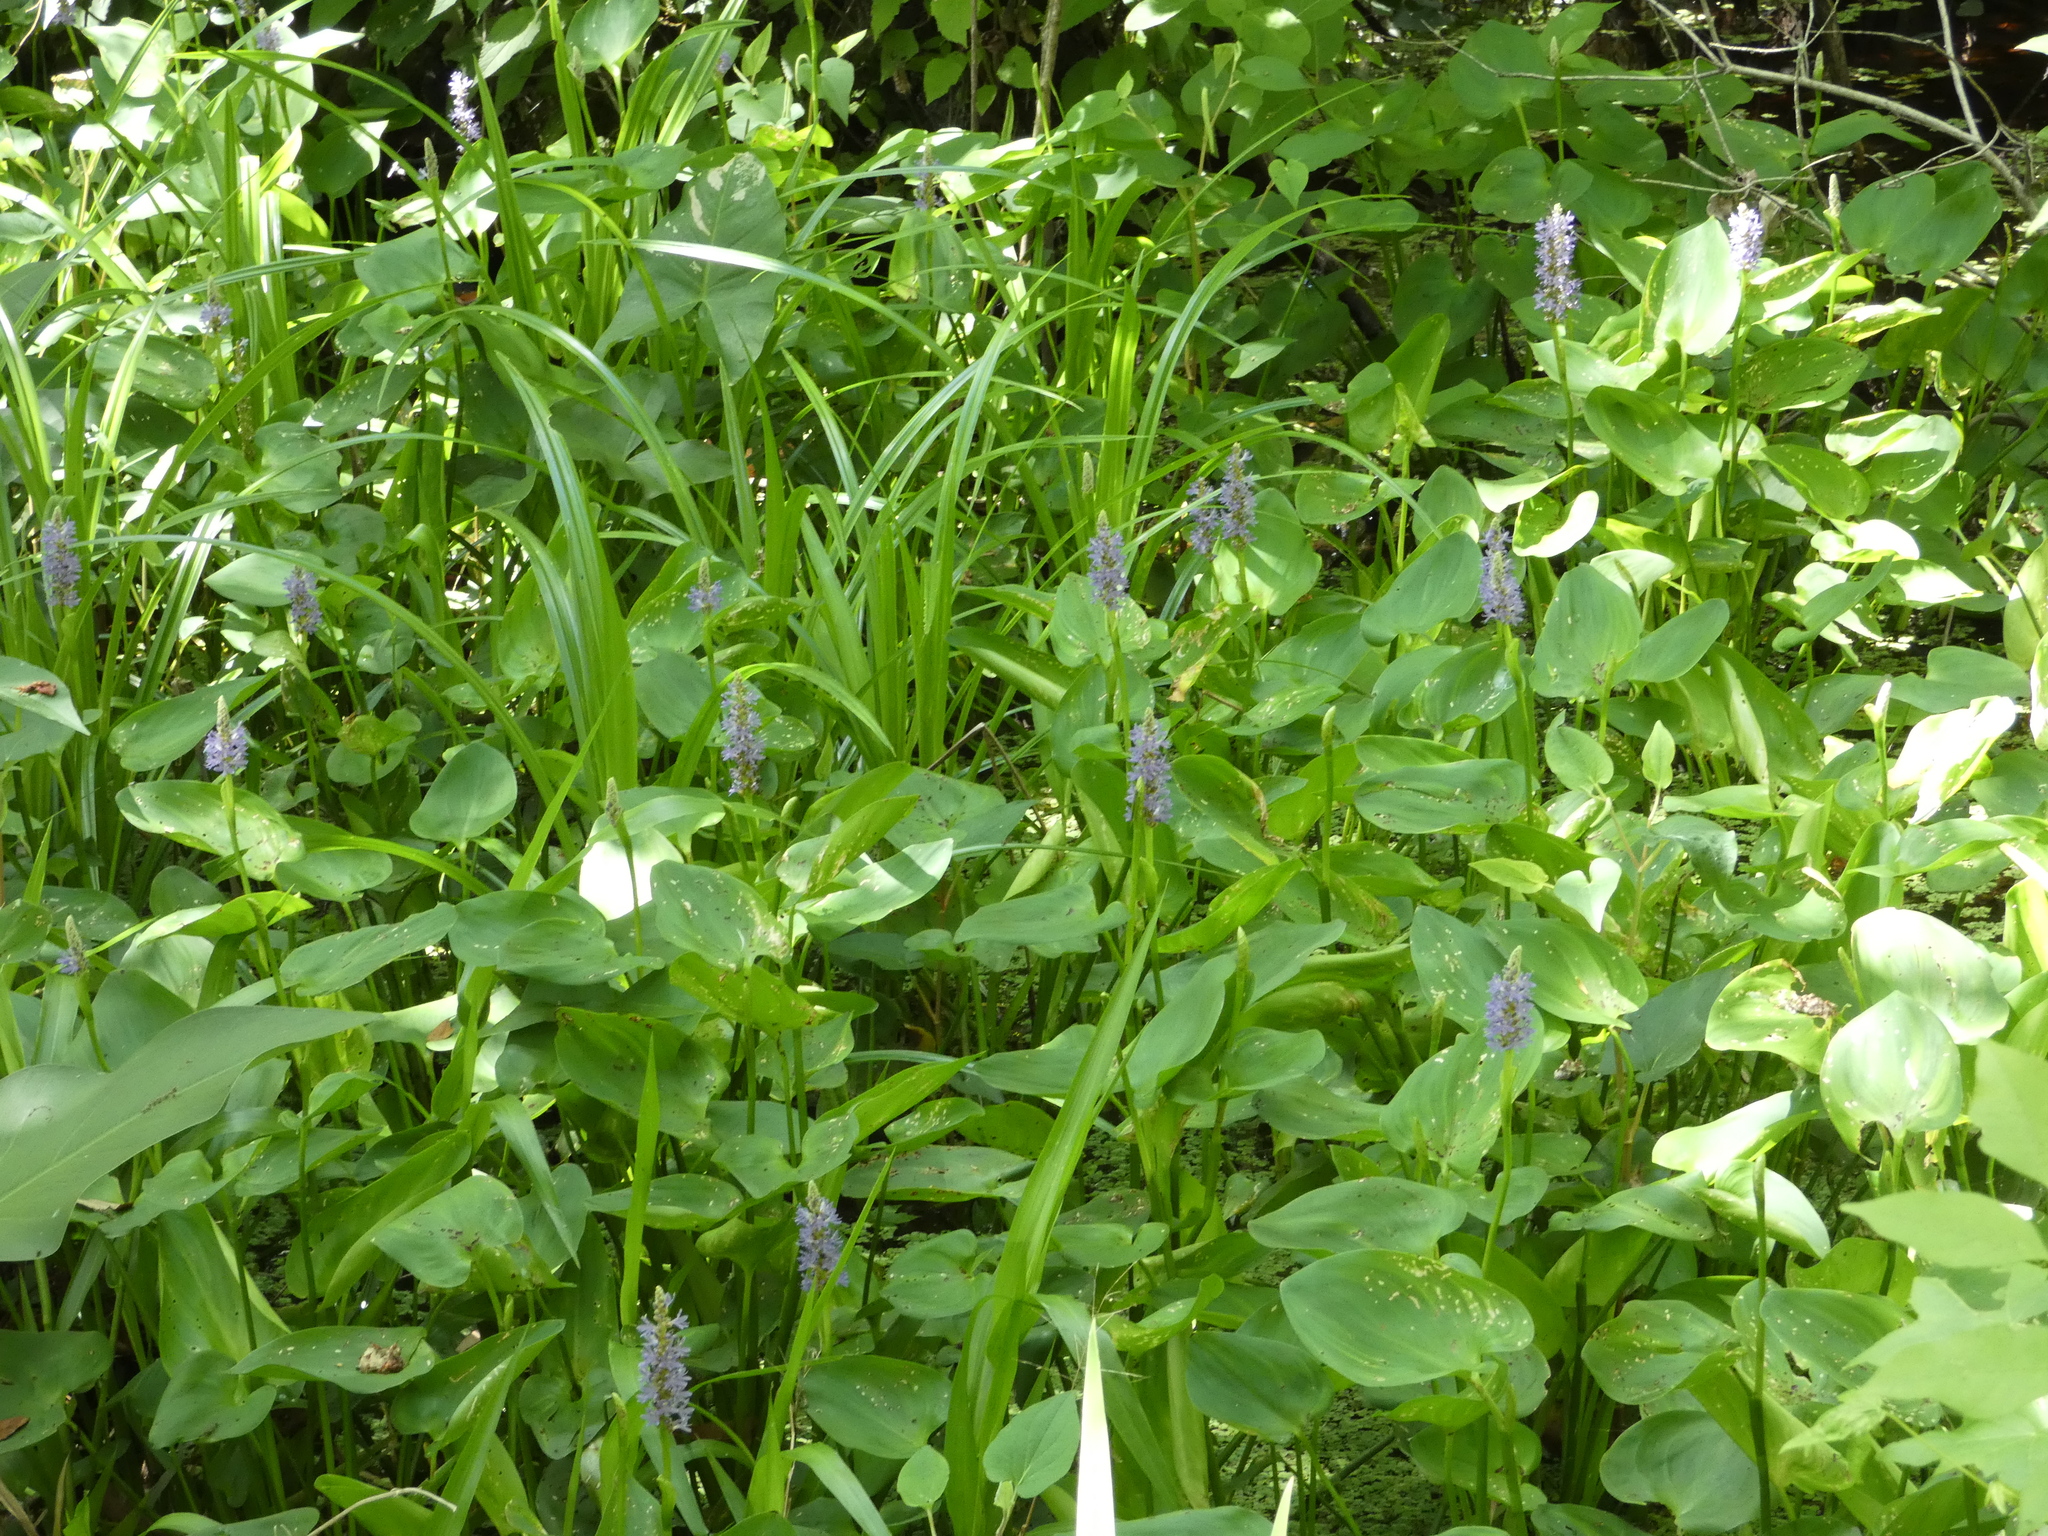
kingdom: Plantae
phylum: Tracheophyta
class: Liliopsida
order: Commelinales
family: Pontederiaceae
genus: Pontederia
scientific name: Pontederia cordata
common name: Pickerelweed
